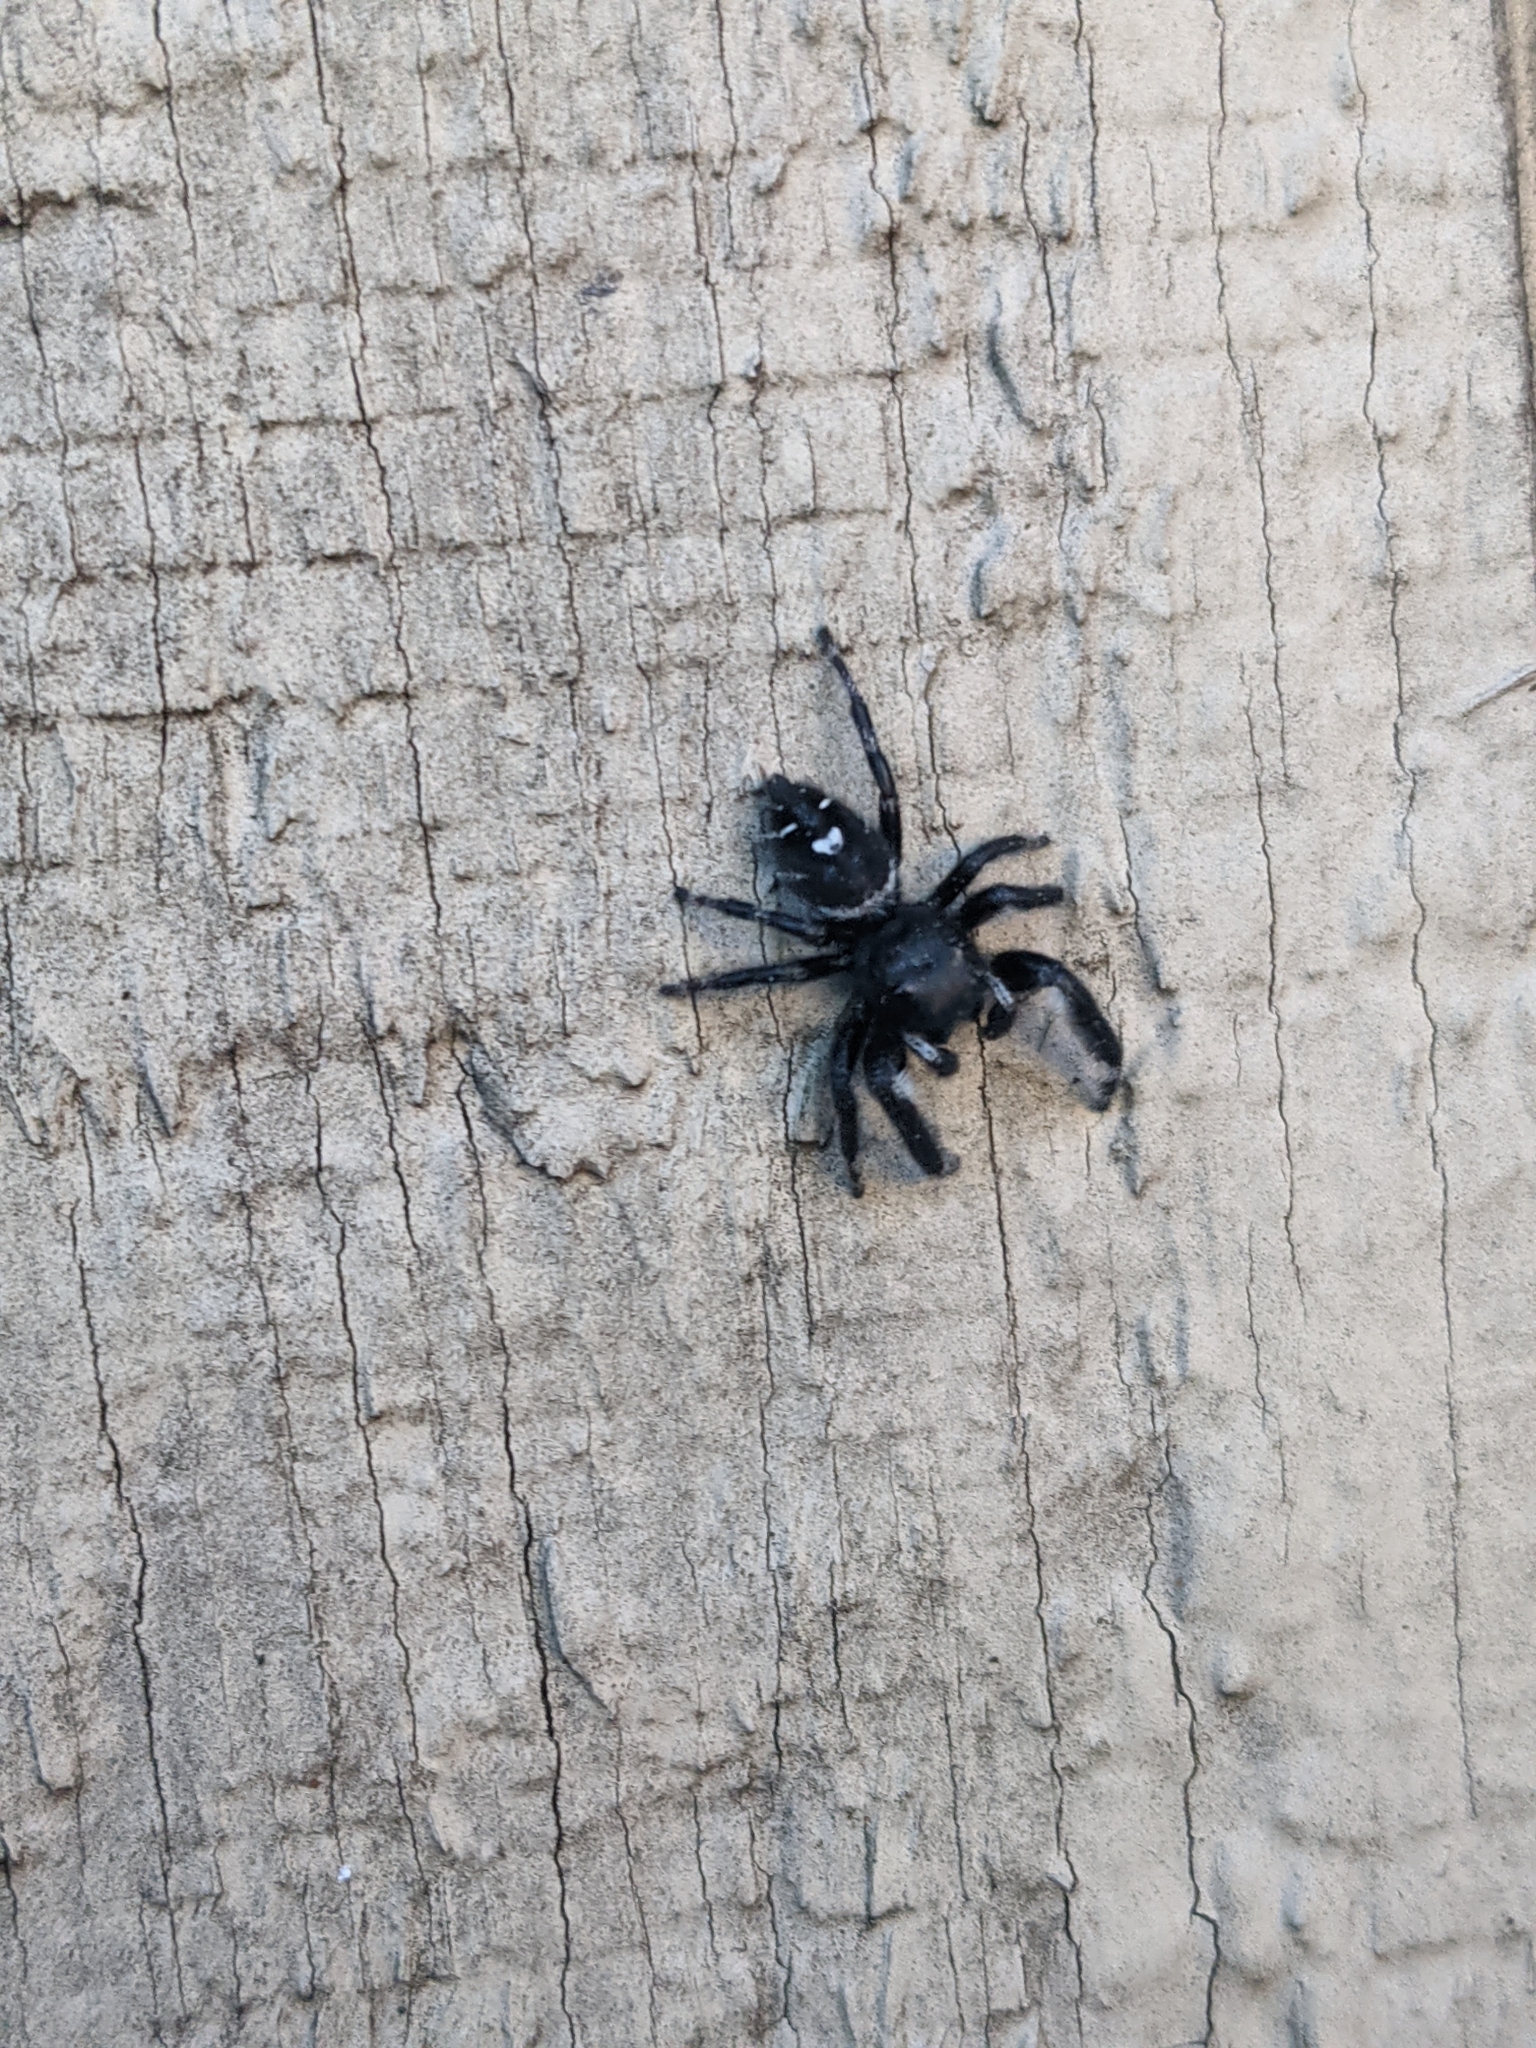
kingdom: Animalia
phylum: Arthropoda
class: Arachnida
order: Araneae
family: Salticidae
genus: Phidippus
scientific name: Phidippus audax
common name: Bold jumper
